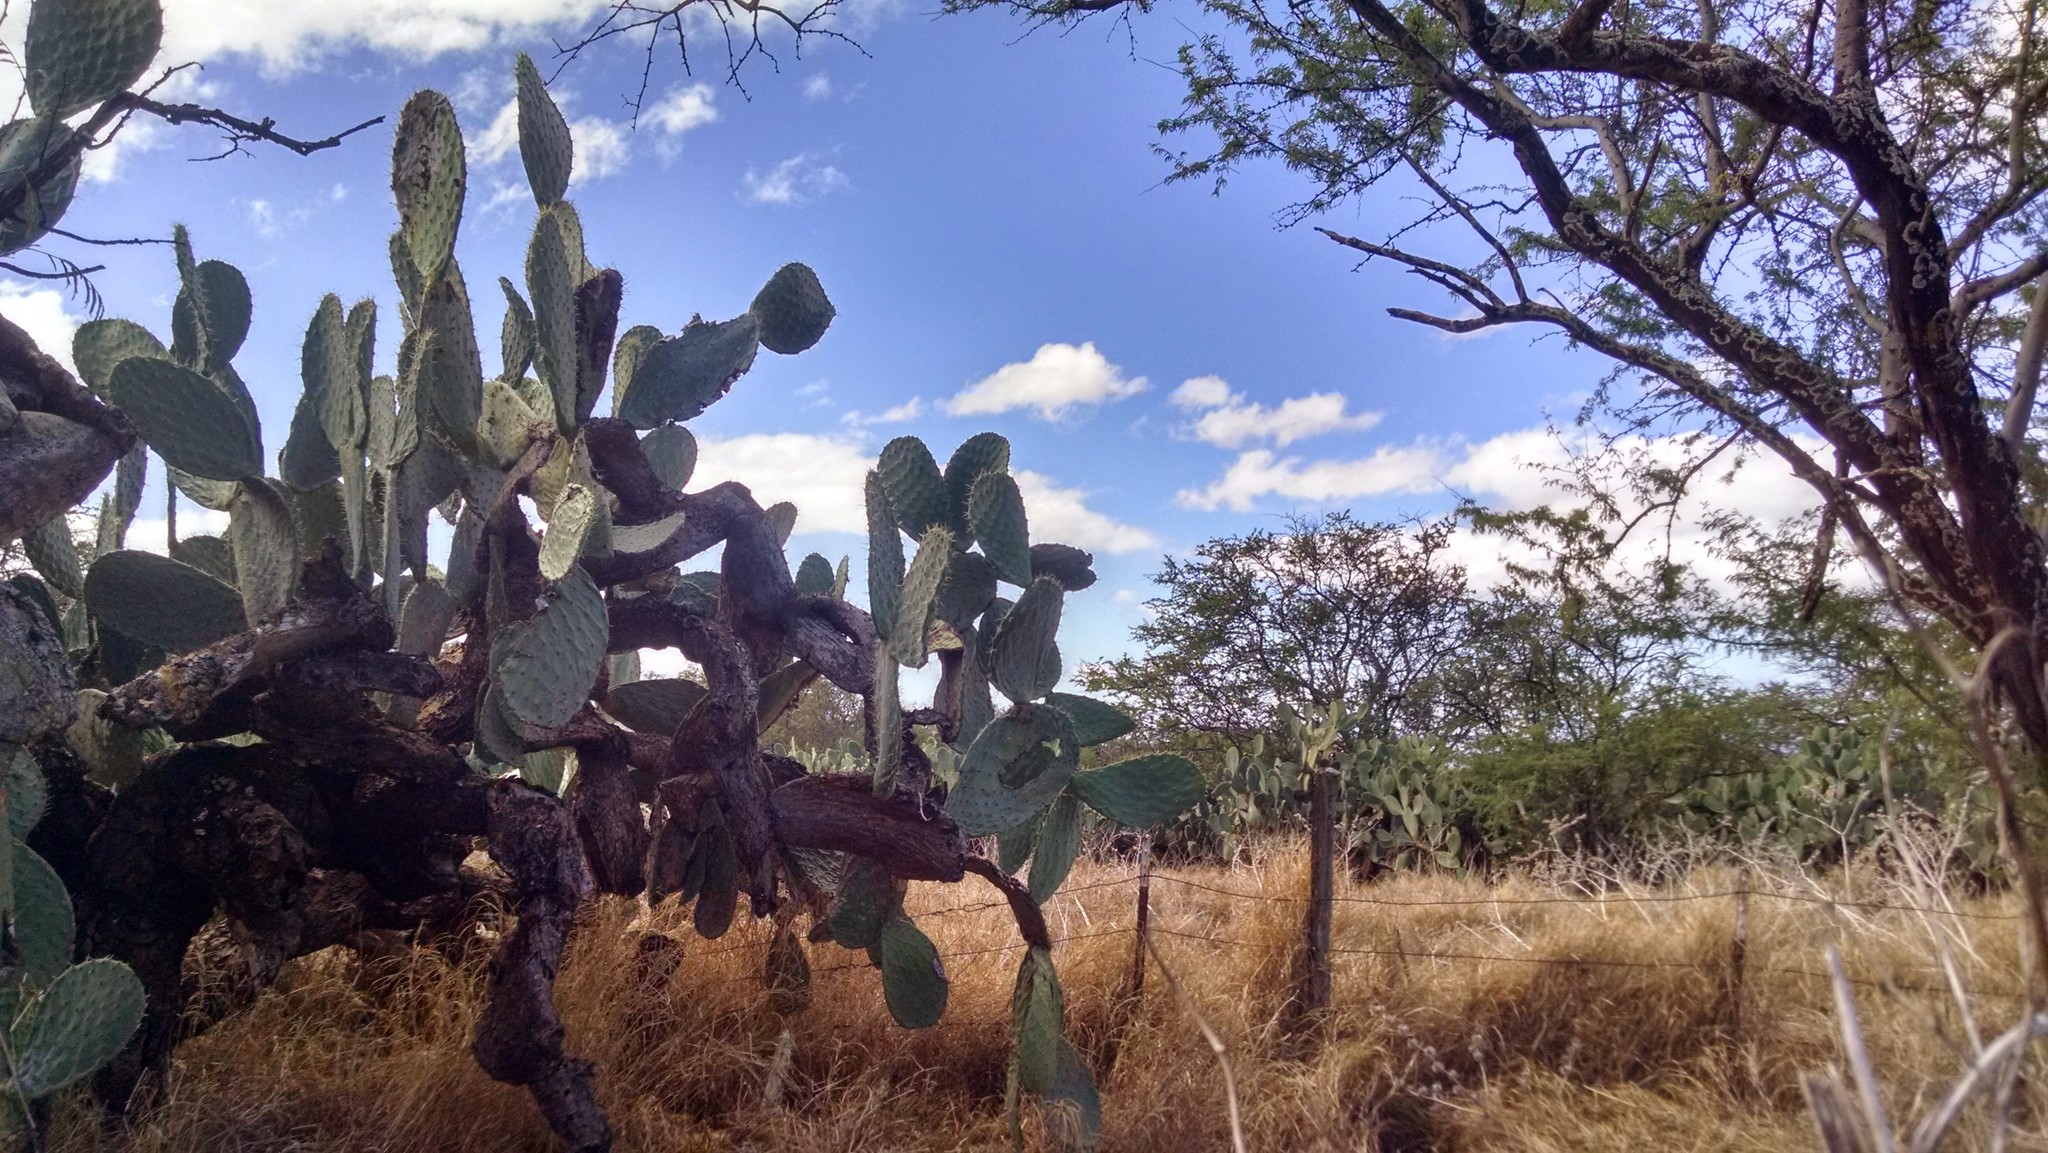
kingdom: Plantae
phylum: Tracheophyta
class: Magnoliopsida
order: Caryophyllales
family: Cactaceae
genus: Opuntia
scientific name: Opuntia ficus-indica
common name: Barbary fig
